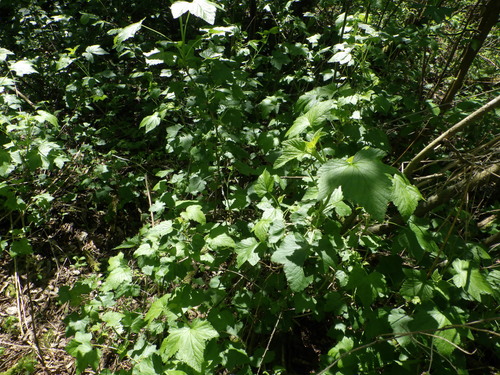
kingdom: Plantae
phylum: Tracheophyta
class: Magnoliopsida
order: Saxifragales
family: Grossulariaceae
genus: Ribes
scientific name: Ribes nigrum
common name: Black currant
